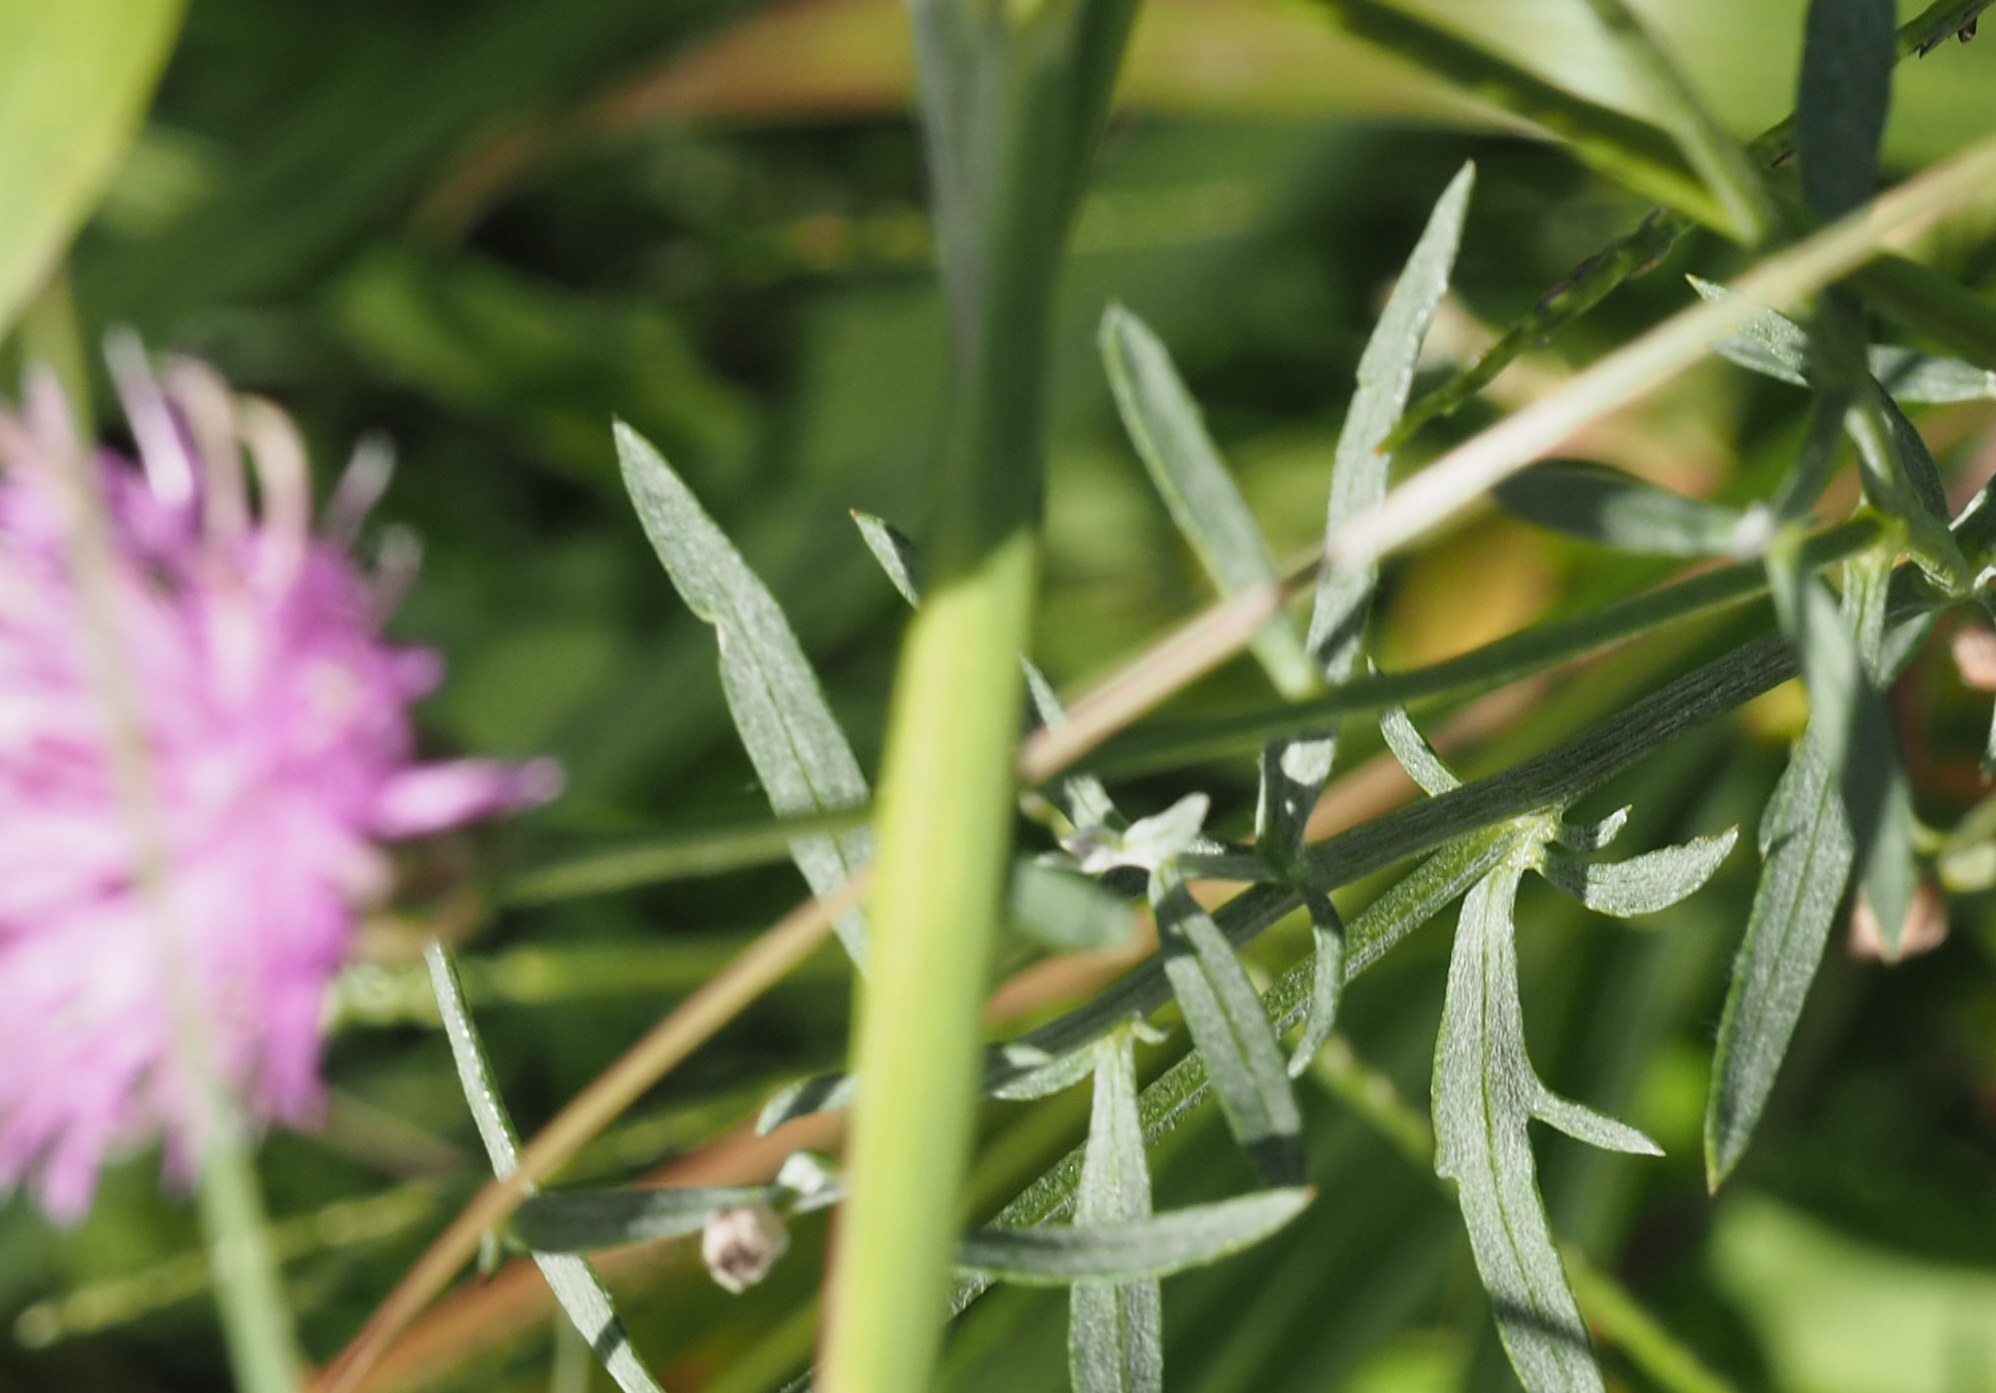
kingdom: Plantae
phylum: Tracheophyta
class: Magnoliopsida
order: Asterales
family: Asteraceae
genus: Centaurea
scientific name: Centaurea stoebe
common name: Spotted knapweed
